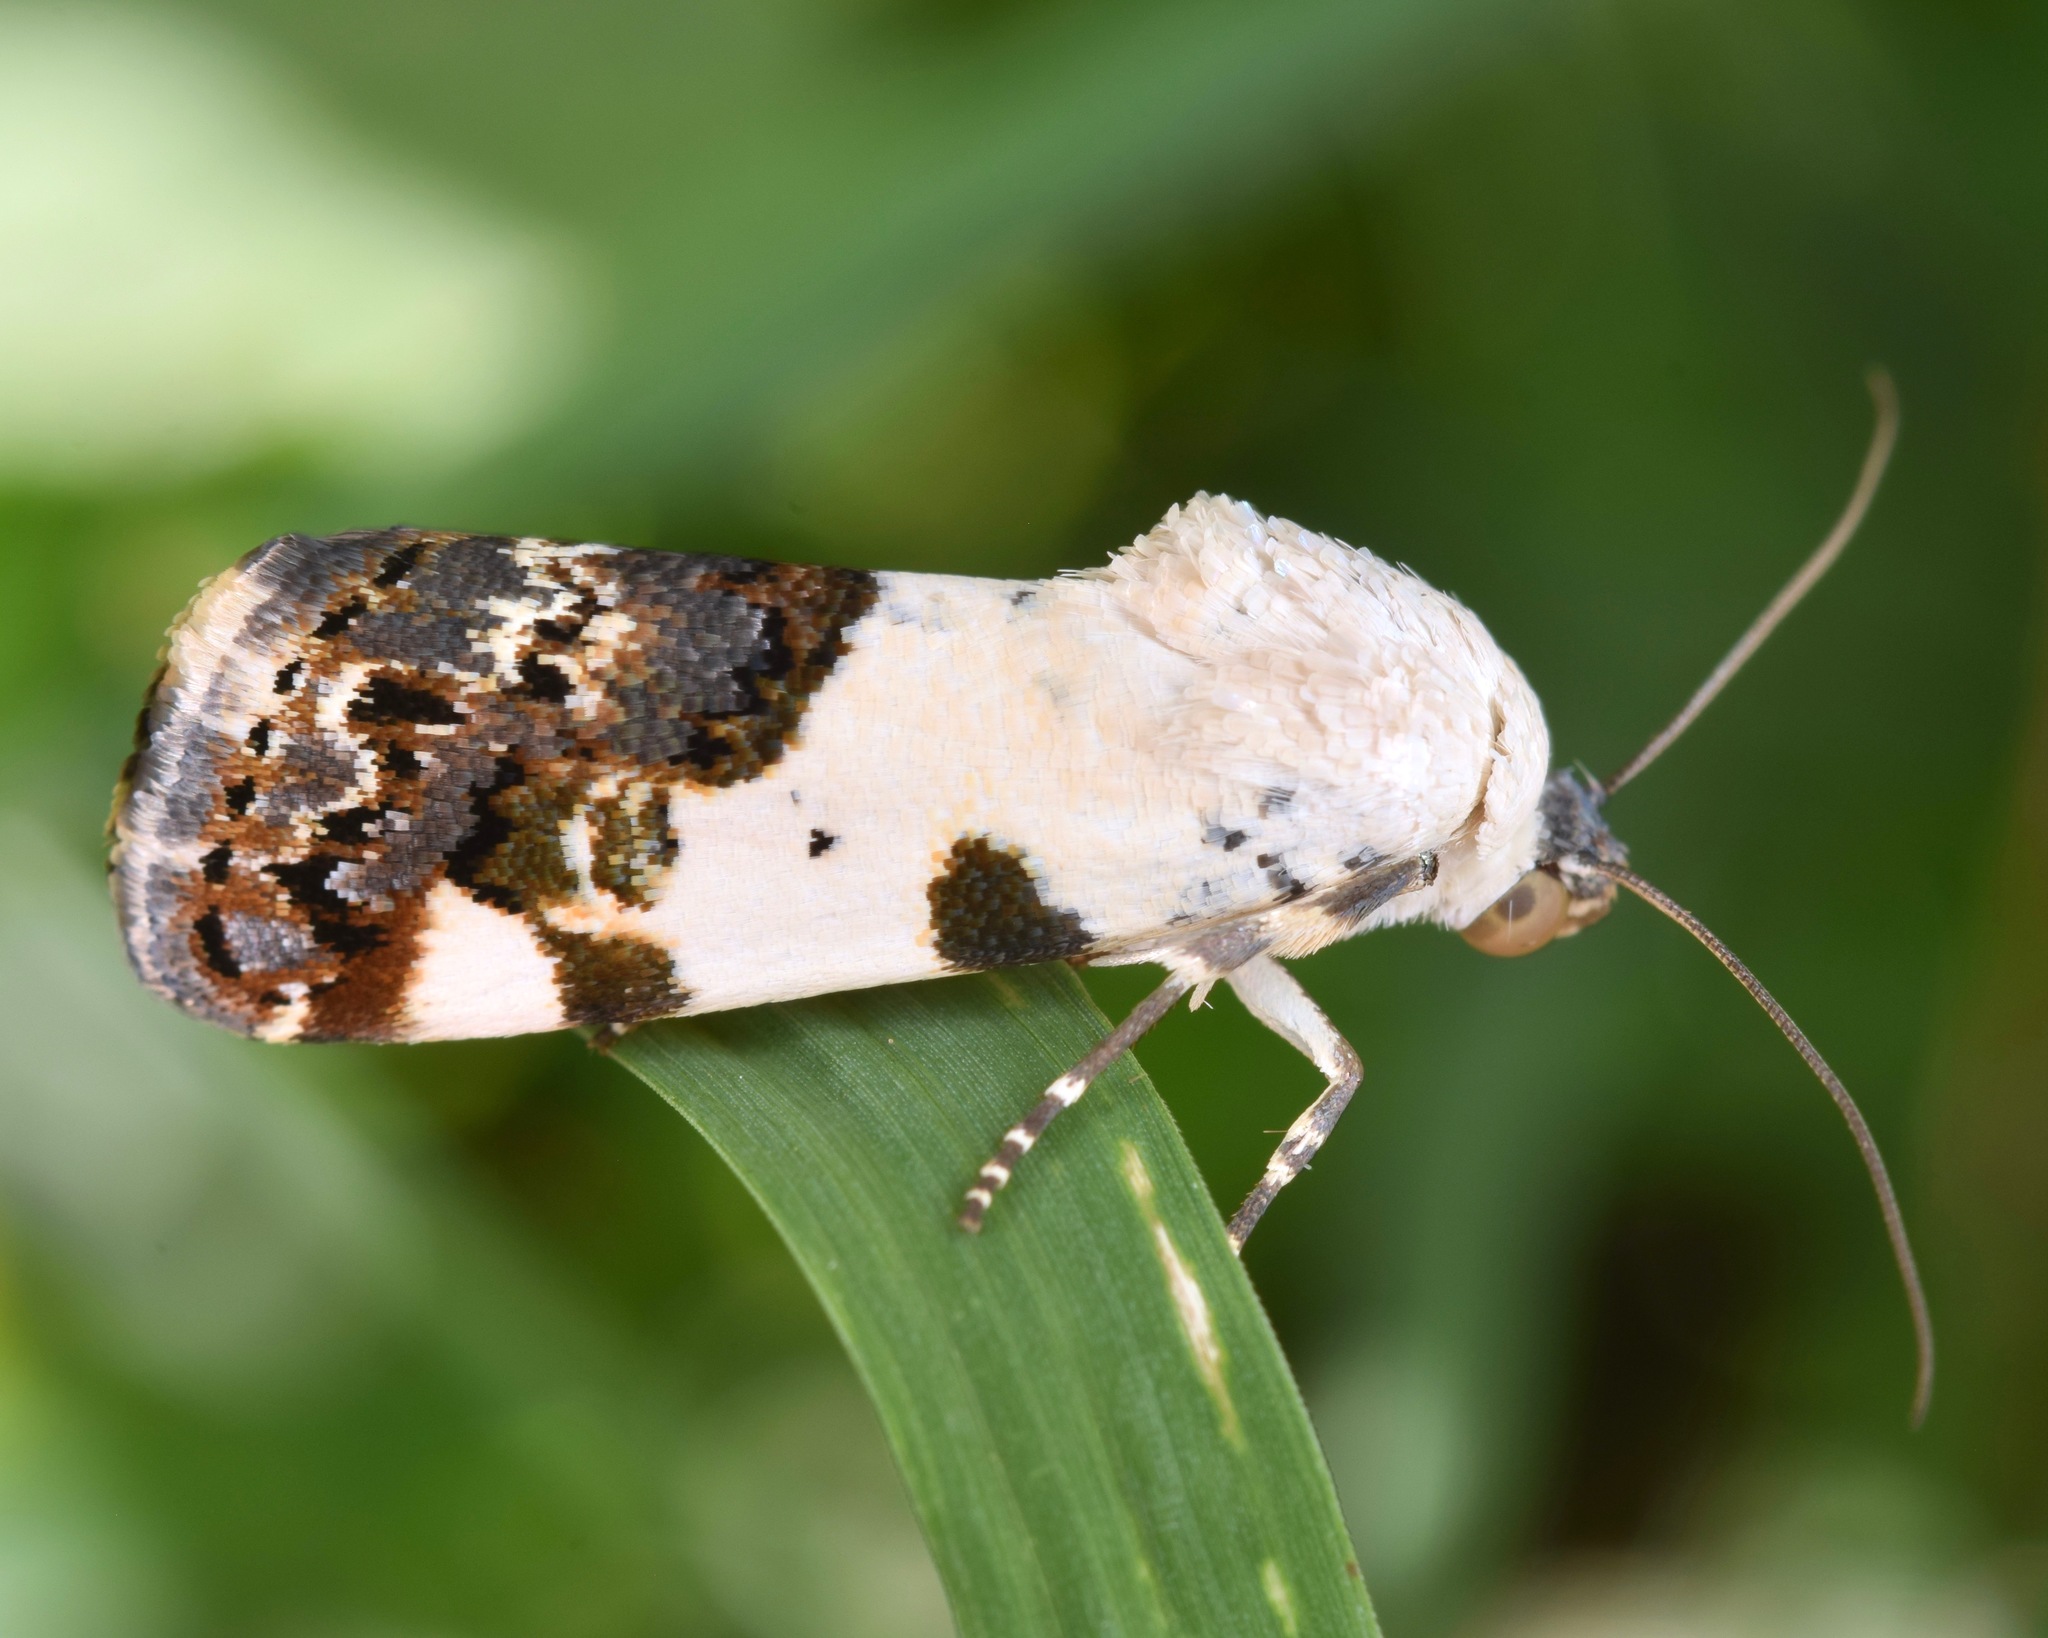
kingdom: Animalia
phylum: Arthropoda
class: Insecta
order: Lepidoptera
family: Noctuidae
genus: Acontia
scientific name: Acontia aprica
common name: Nun
